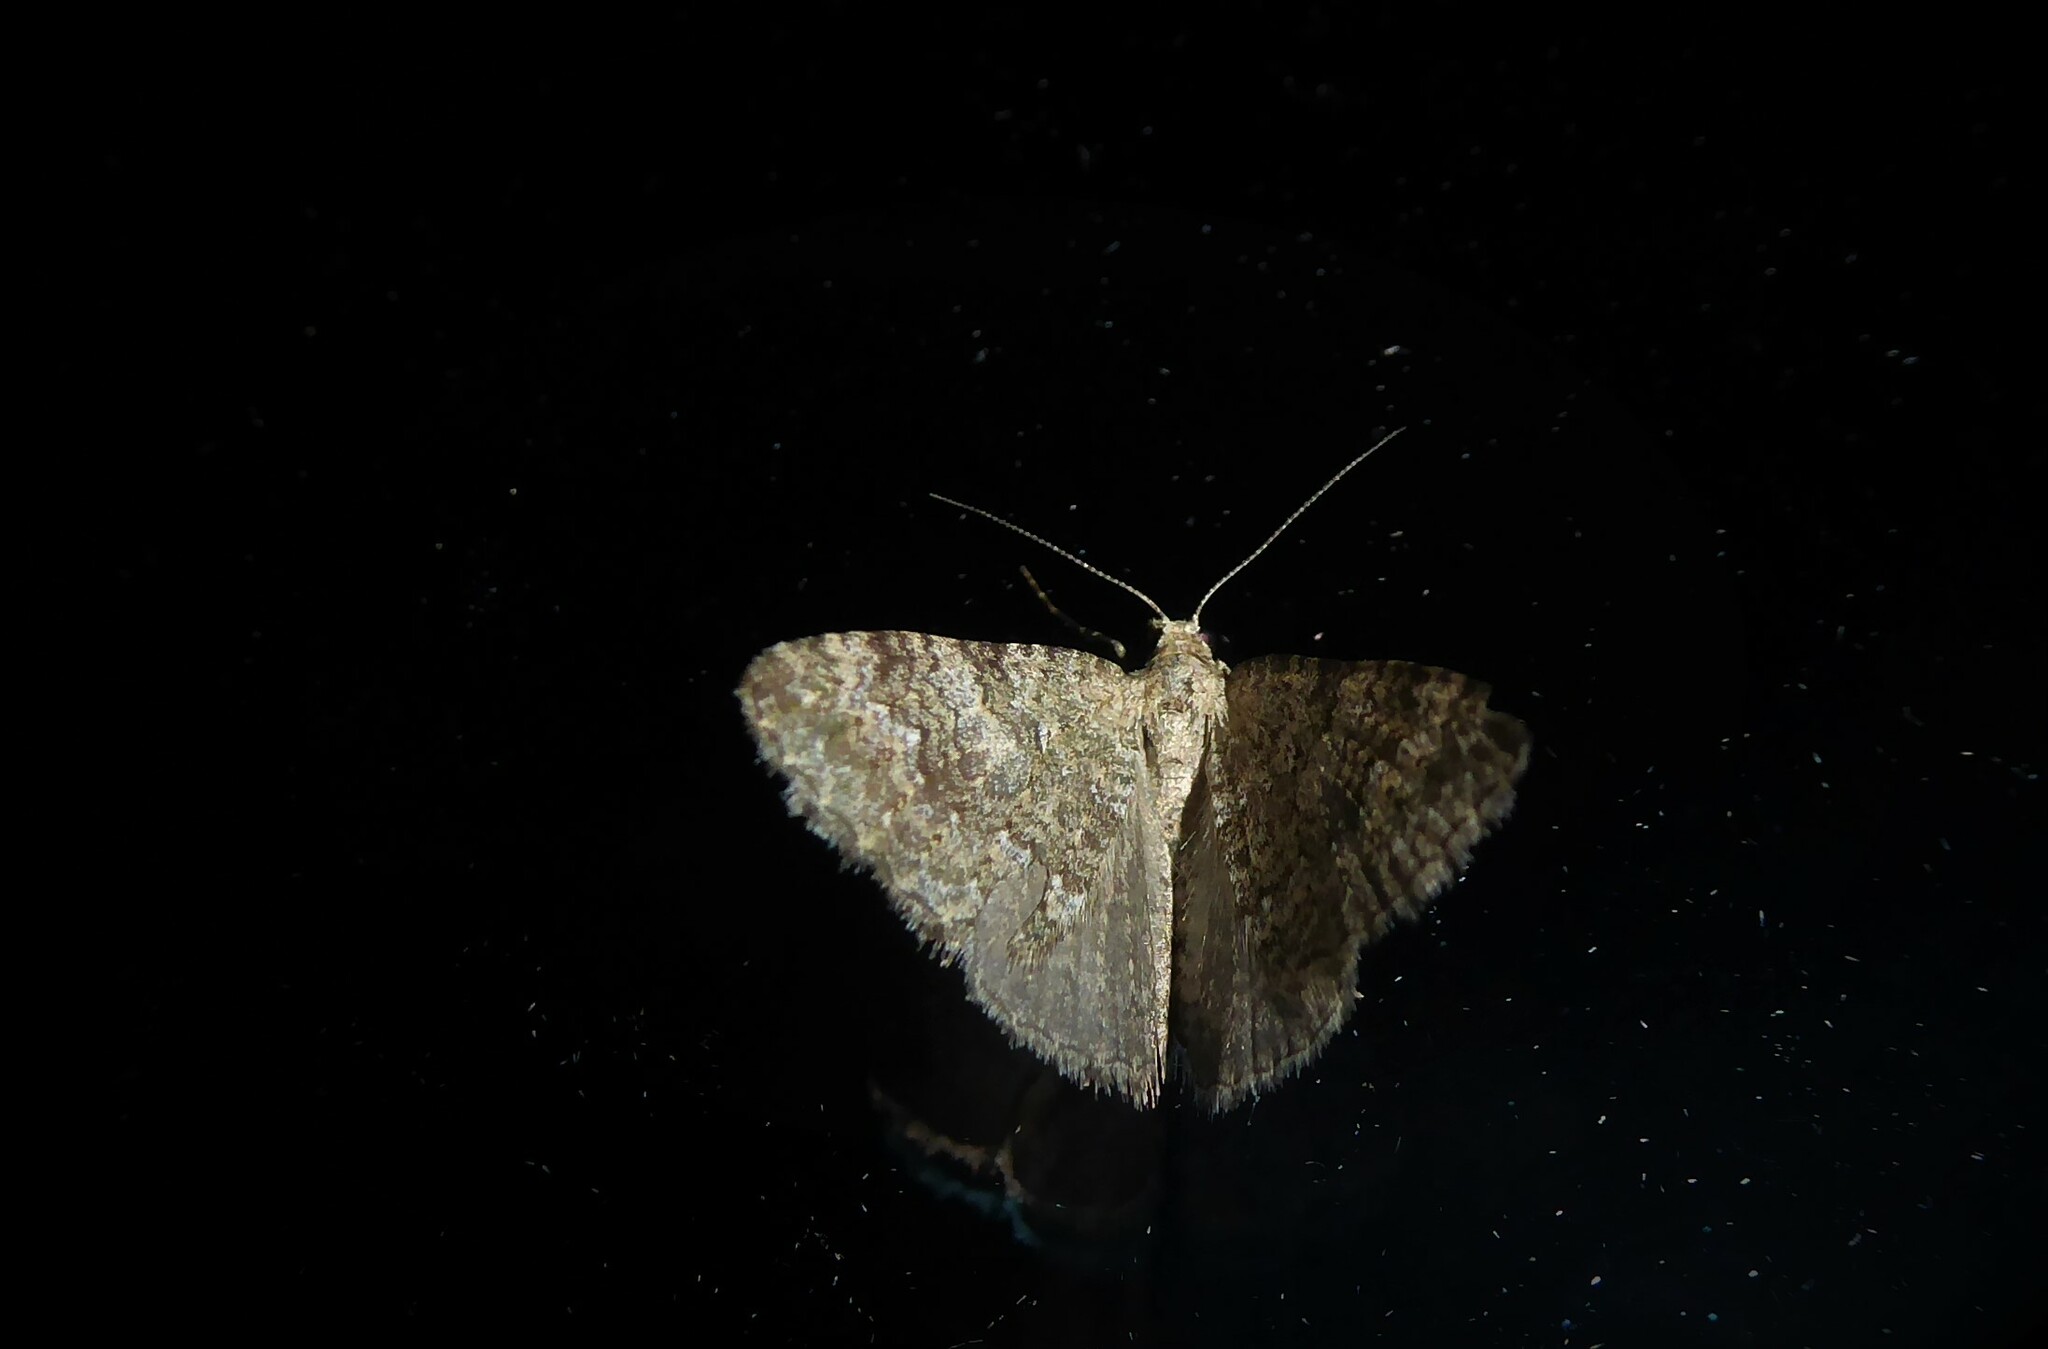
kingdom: Animalia
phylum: Arthropoda
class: Insecta
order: Lepidoptera
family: Geometridae
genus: Helastia
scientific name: Helastia corcularia
